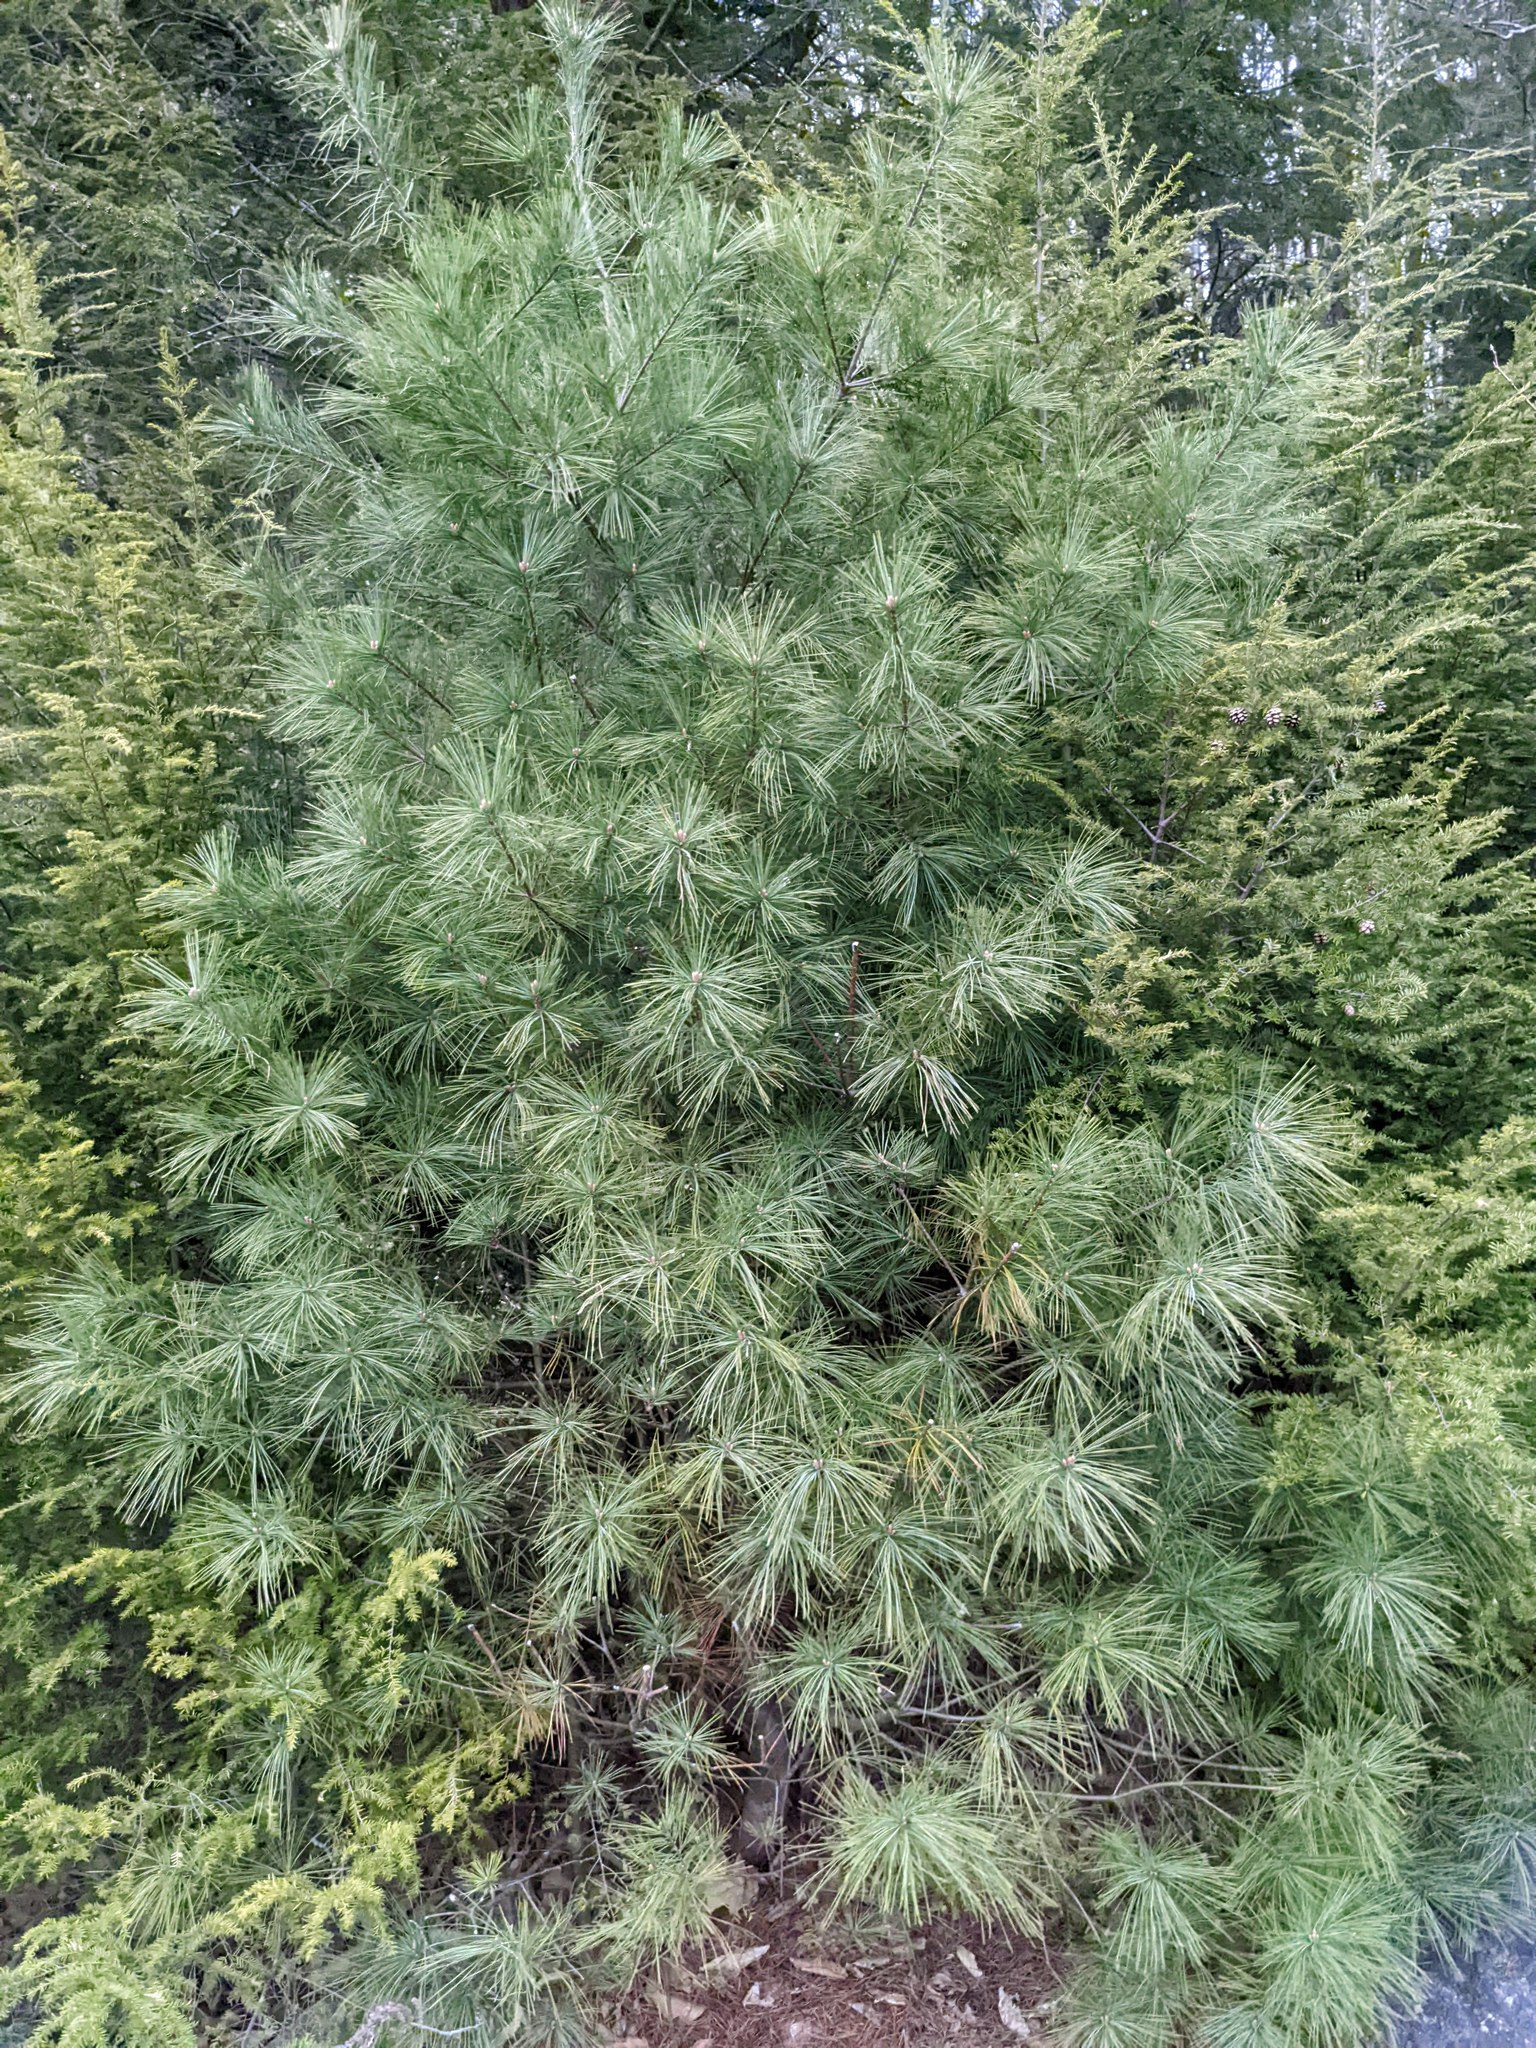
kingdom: Plantae
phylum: Tracheophyta
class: Pinopsida
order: Pinales
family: Pinaceae
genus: Pinus
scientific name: Pinus strobus
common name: Weymouth pine
